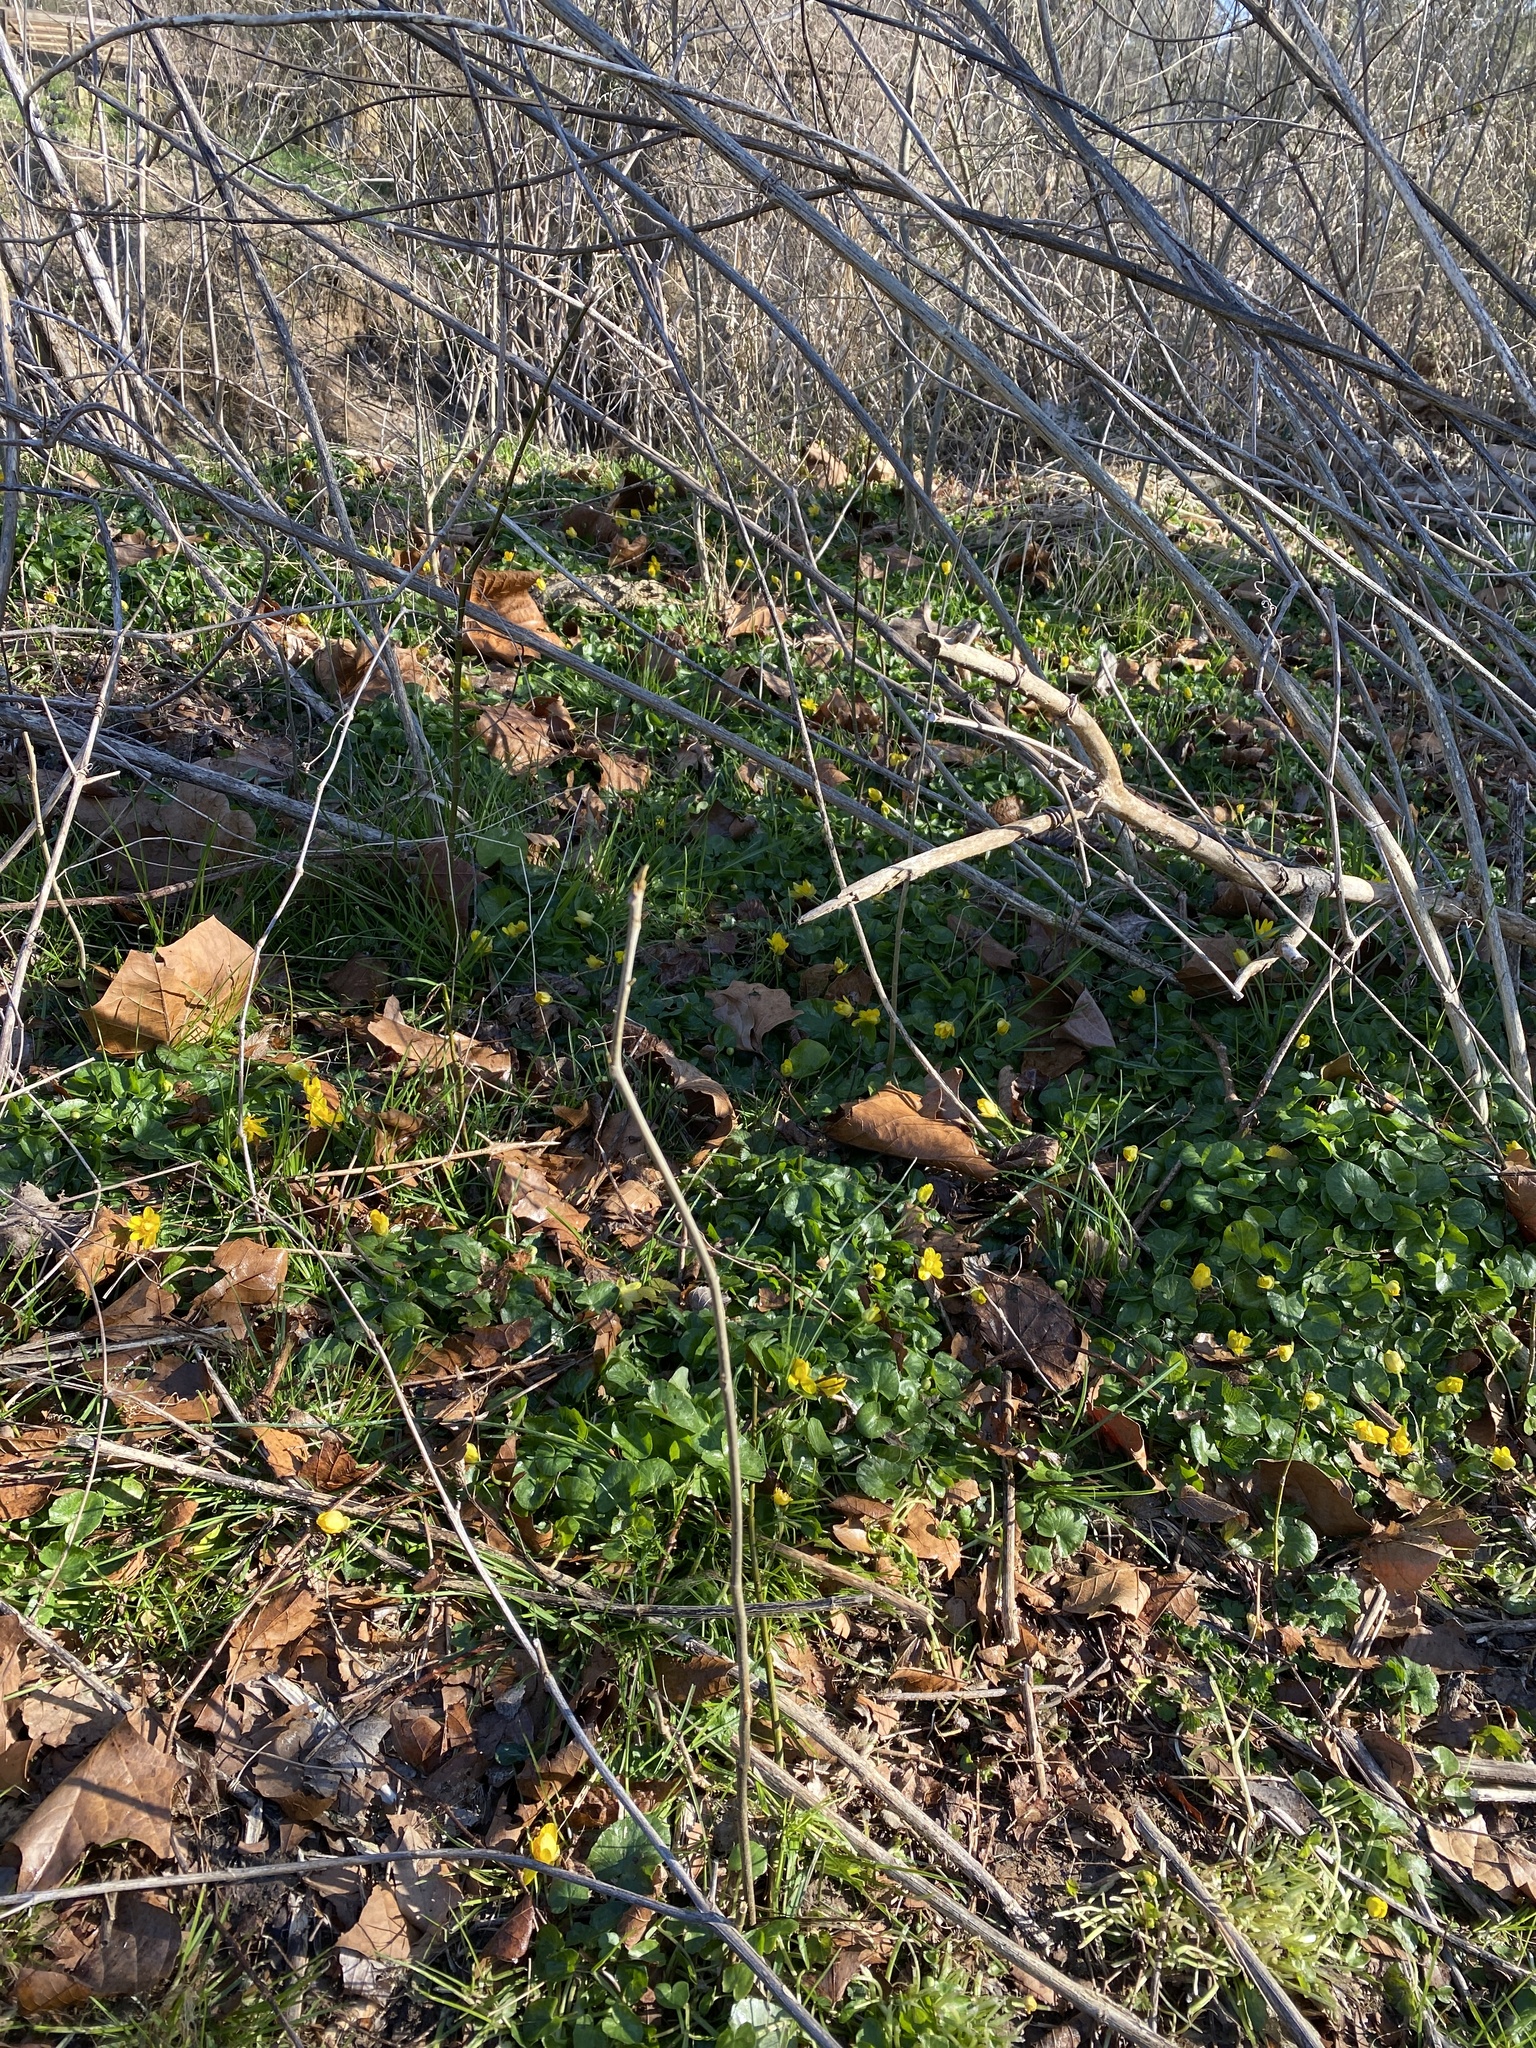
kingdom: Plantae
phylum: Tracheophyta
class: Magnoliopsida
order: Ranunculales
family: Ranunculaceae
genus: Ficaria
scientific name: Ficaria verna
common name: Lesser celandine
